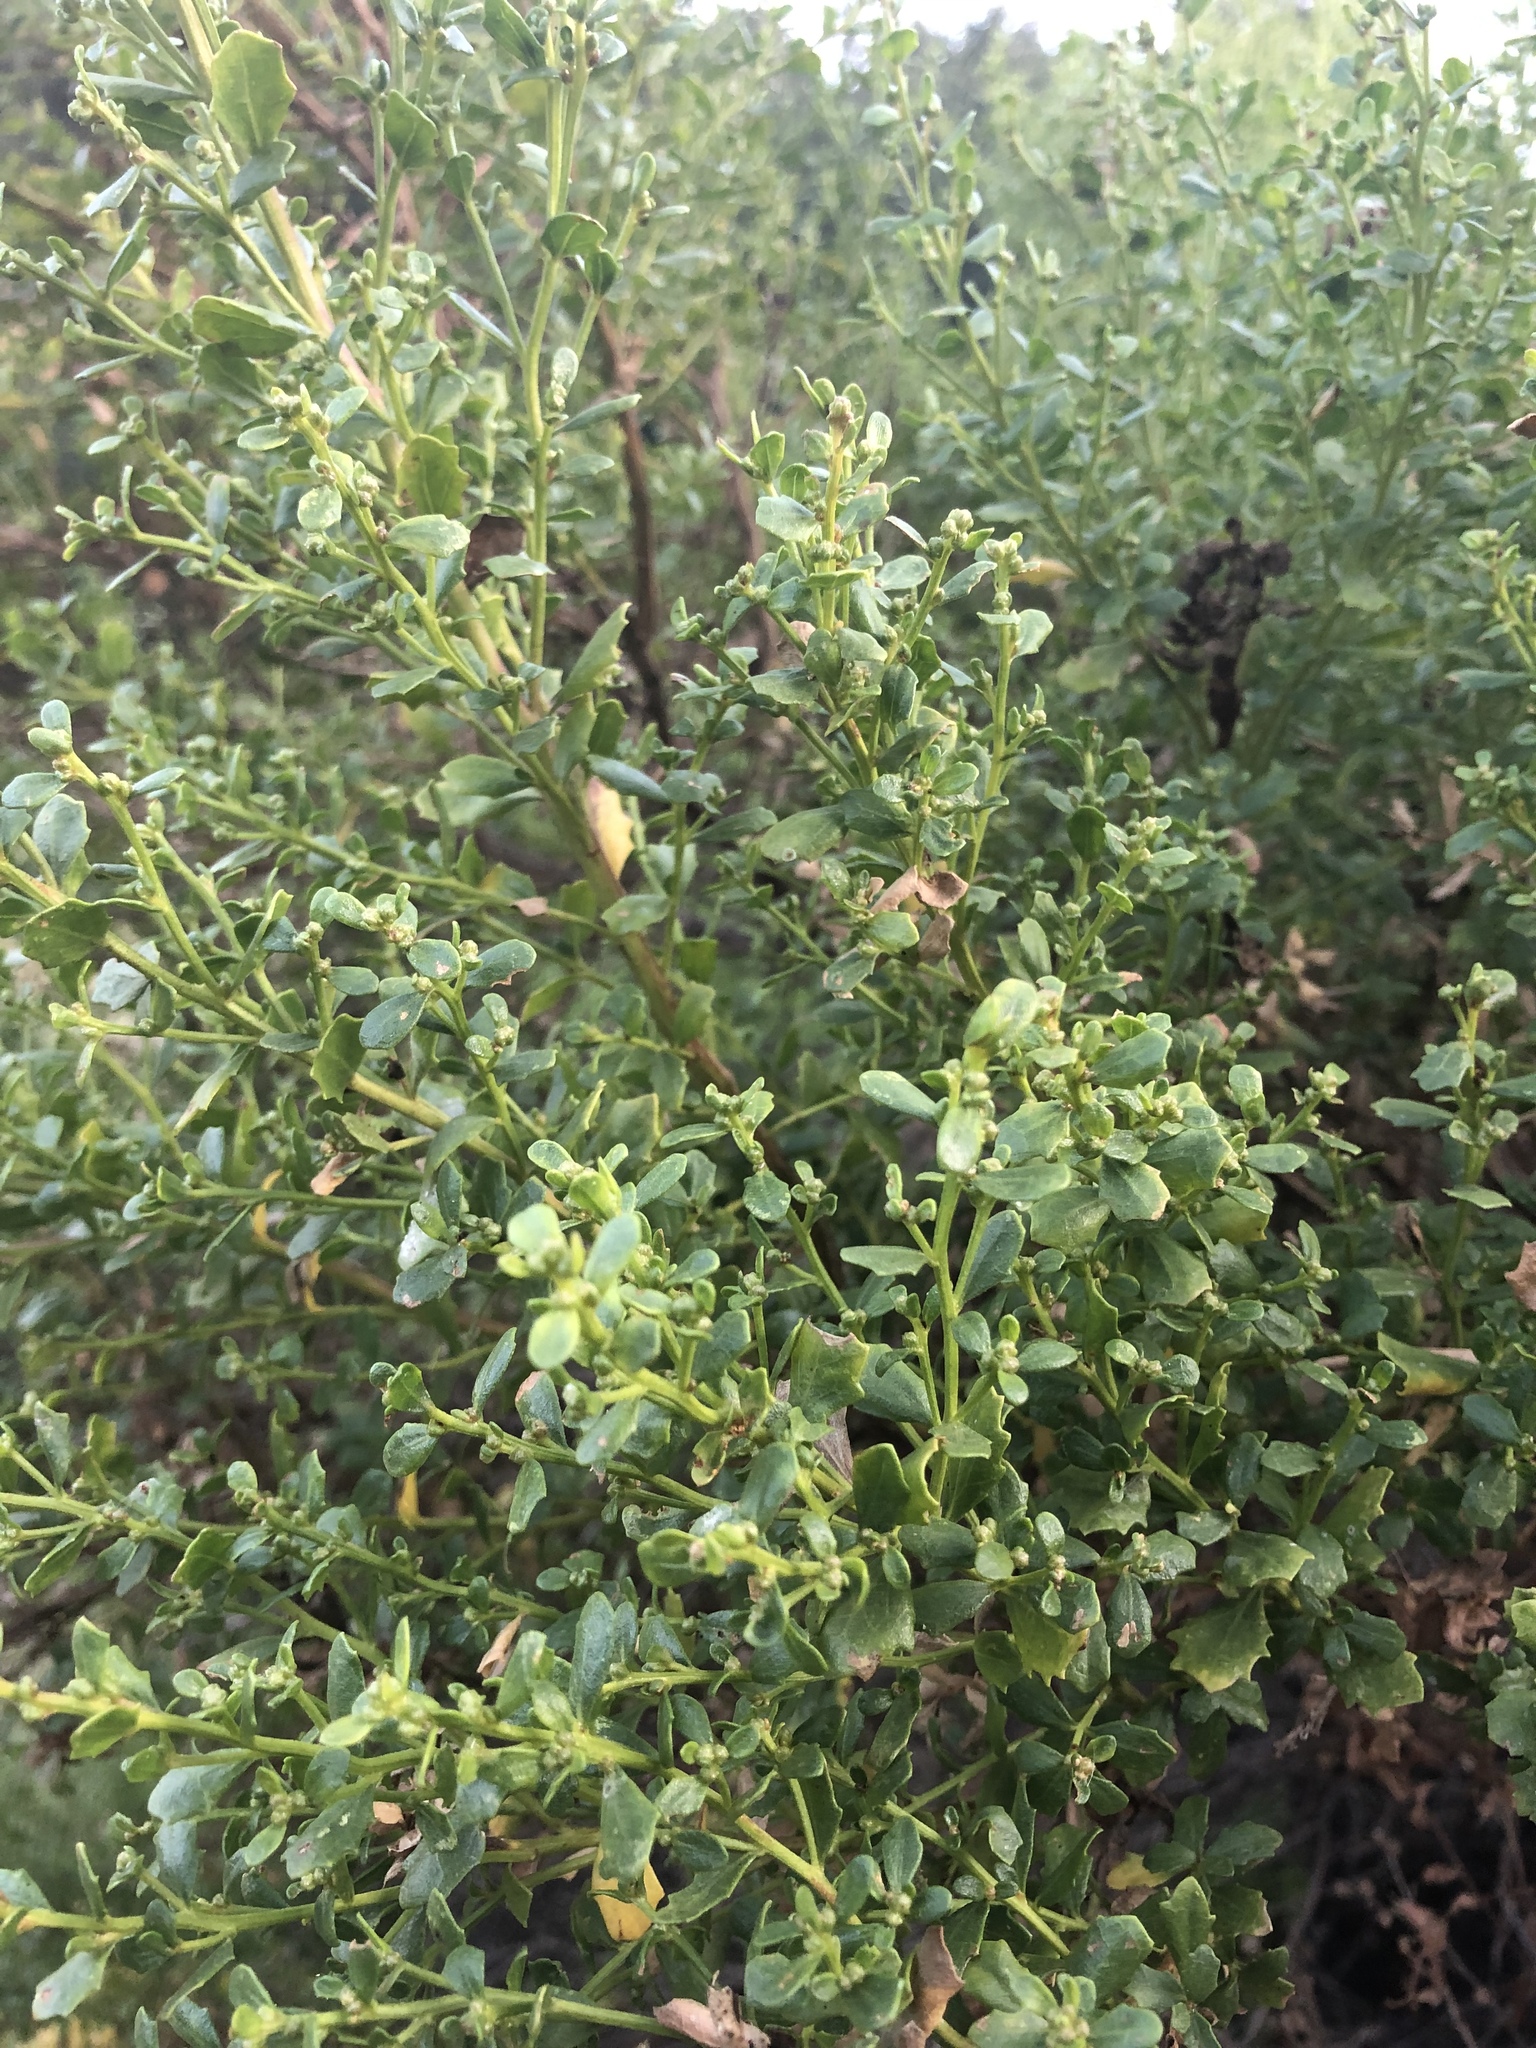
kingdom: Plantae
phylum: Tracheophyta
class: Magnoliopsida
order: Asterales
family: Asteraceae
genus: Baccharis
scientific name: Baccharis pilularis
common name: Coyotebrush
